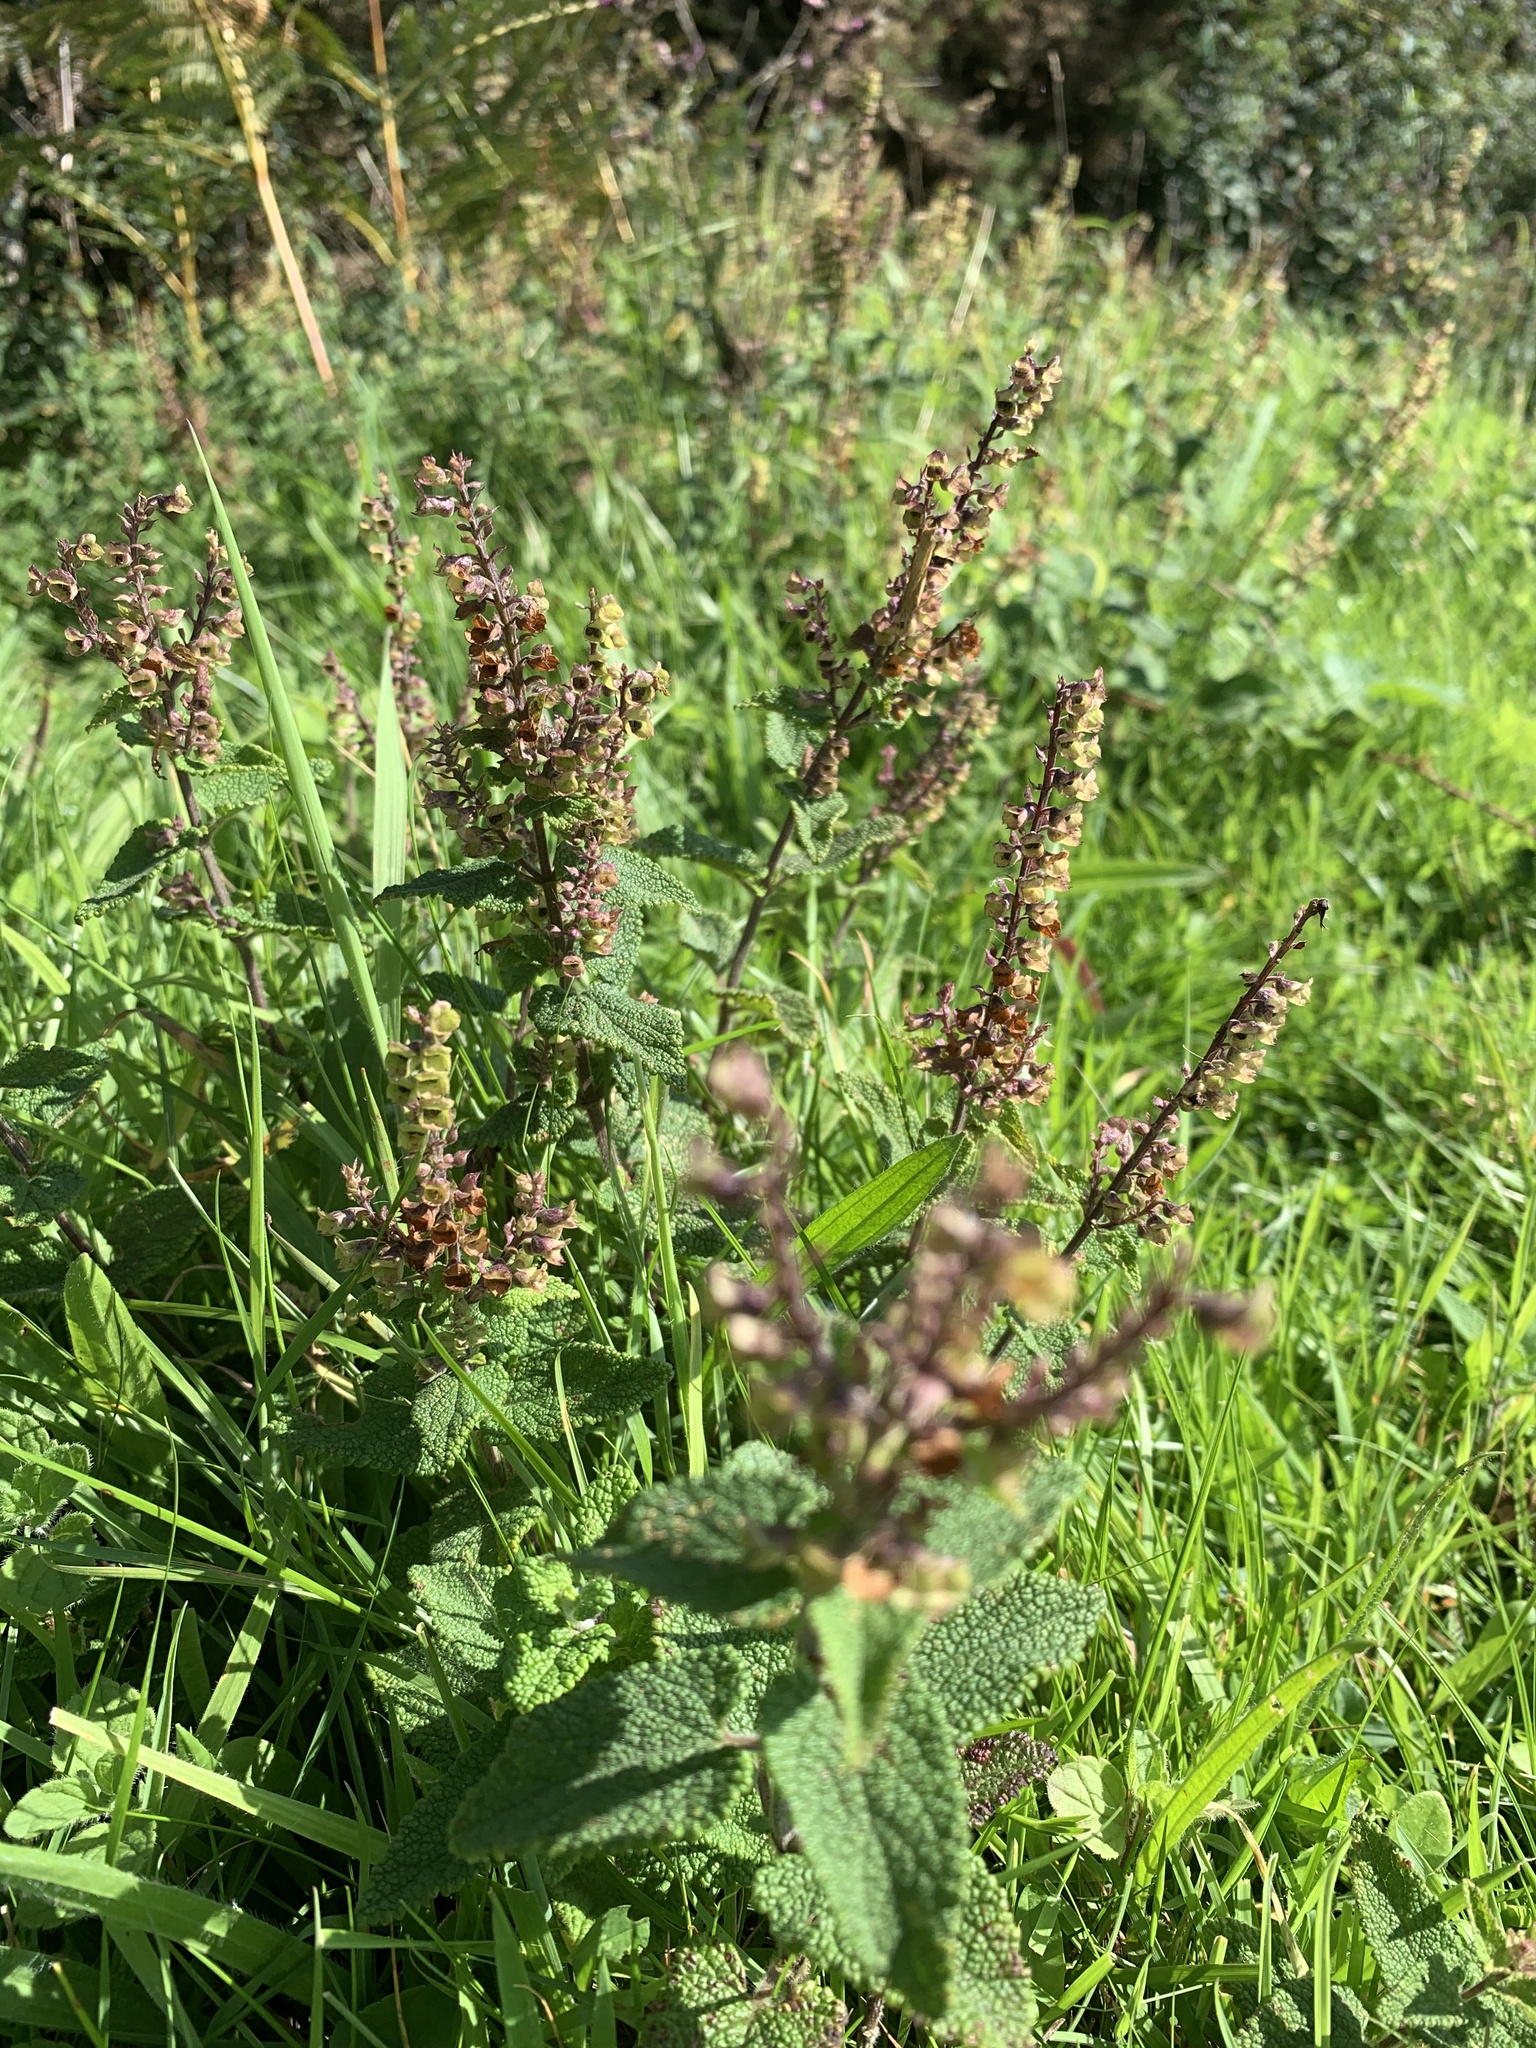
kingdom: Plantae
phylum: Tracheophyta
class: Magnoliopsida
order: Lamiales
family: Lamiaceae
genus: Teucrium
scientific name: Teucrium scorodonia
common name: Woodland germander
